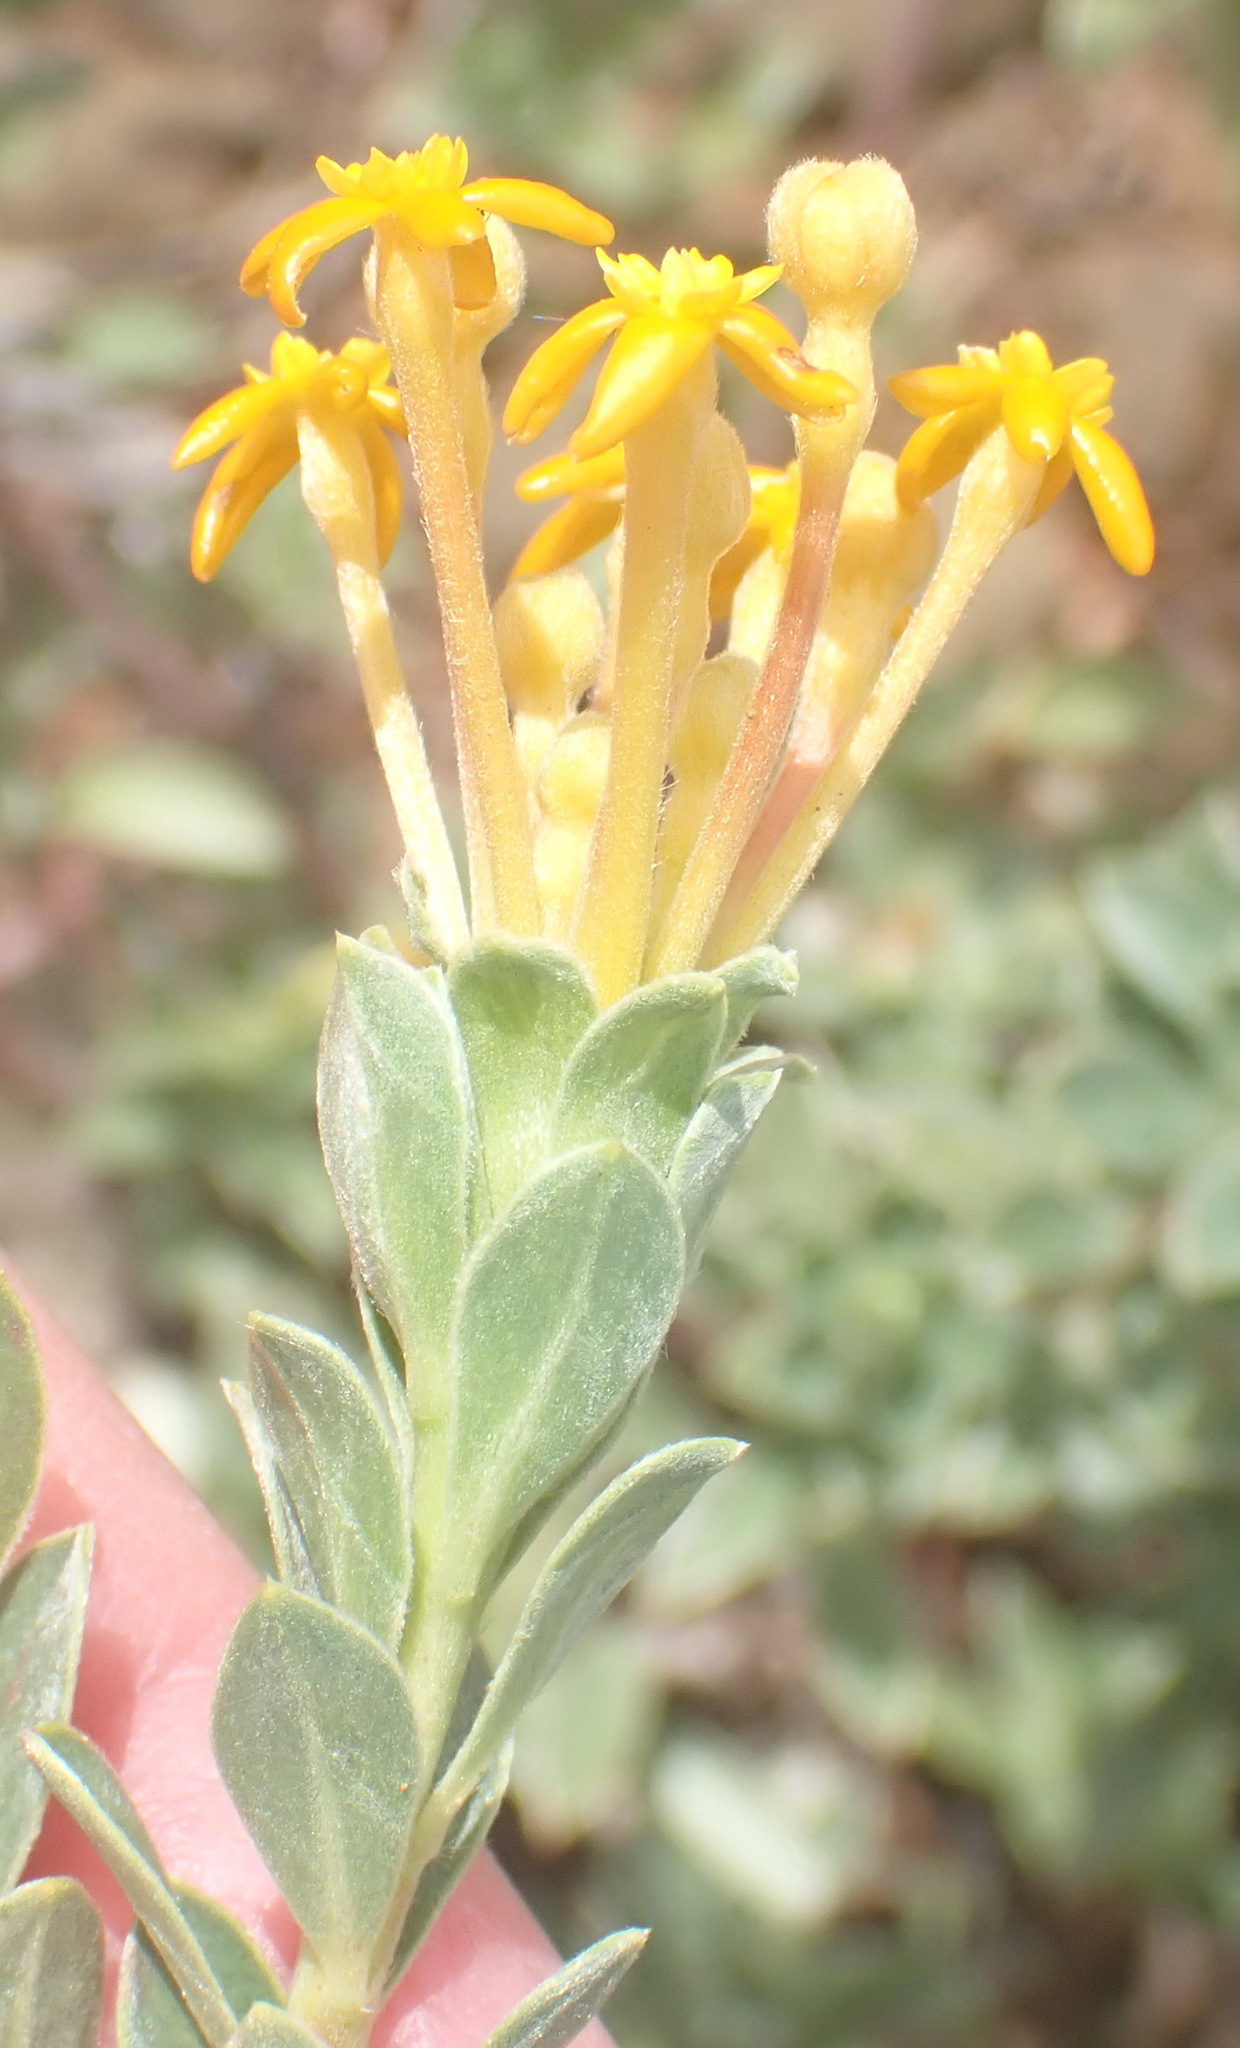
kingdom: Plantae
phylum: Tracheophyta
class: Magnoliopsida
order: Malvales
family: Thymelaeaceae
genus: Gnidia
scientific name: Gnidia cuneata
